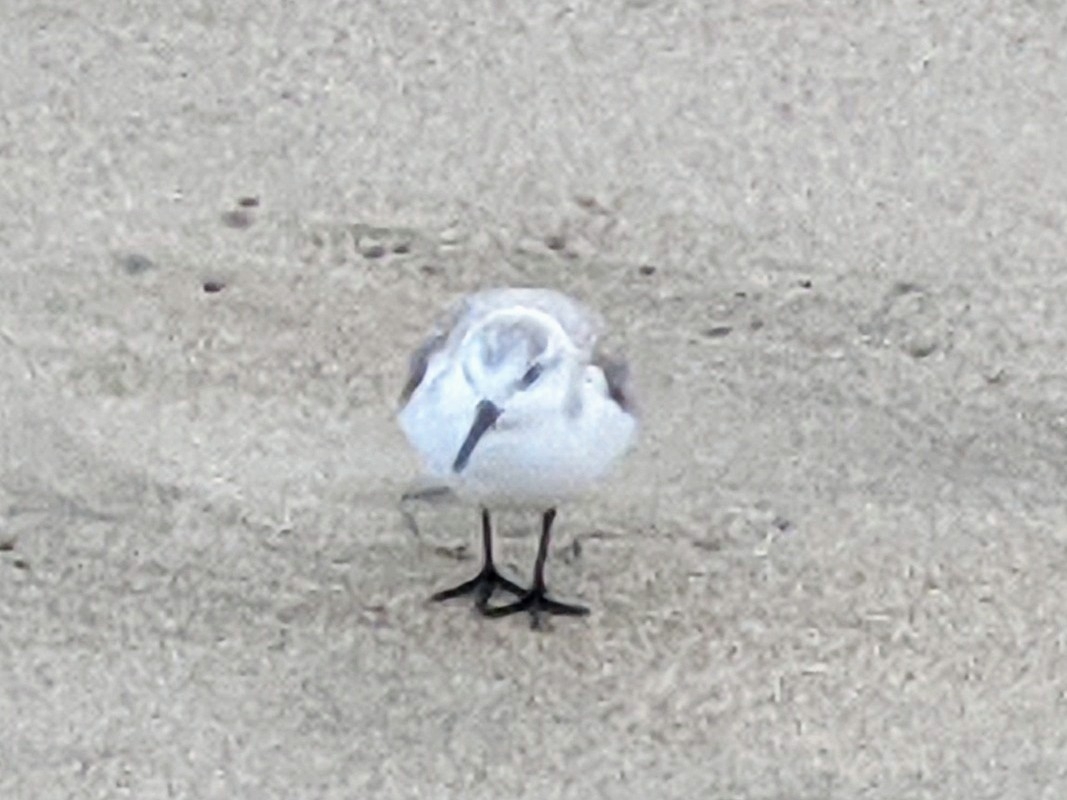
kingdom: Animalia
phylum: Chordata
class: Aves
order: Charadriiformes
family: Scolopacidae
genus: Calidris
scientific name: Calidris alba
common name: Sanderling
